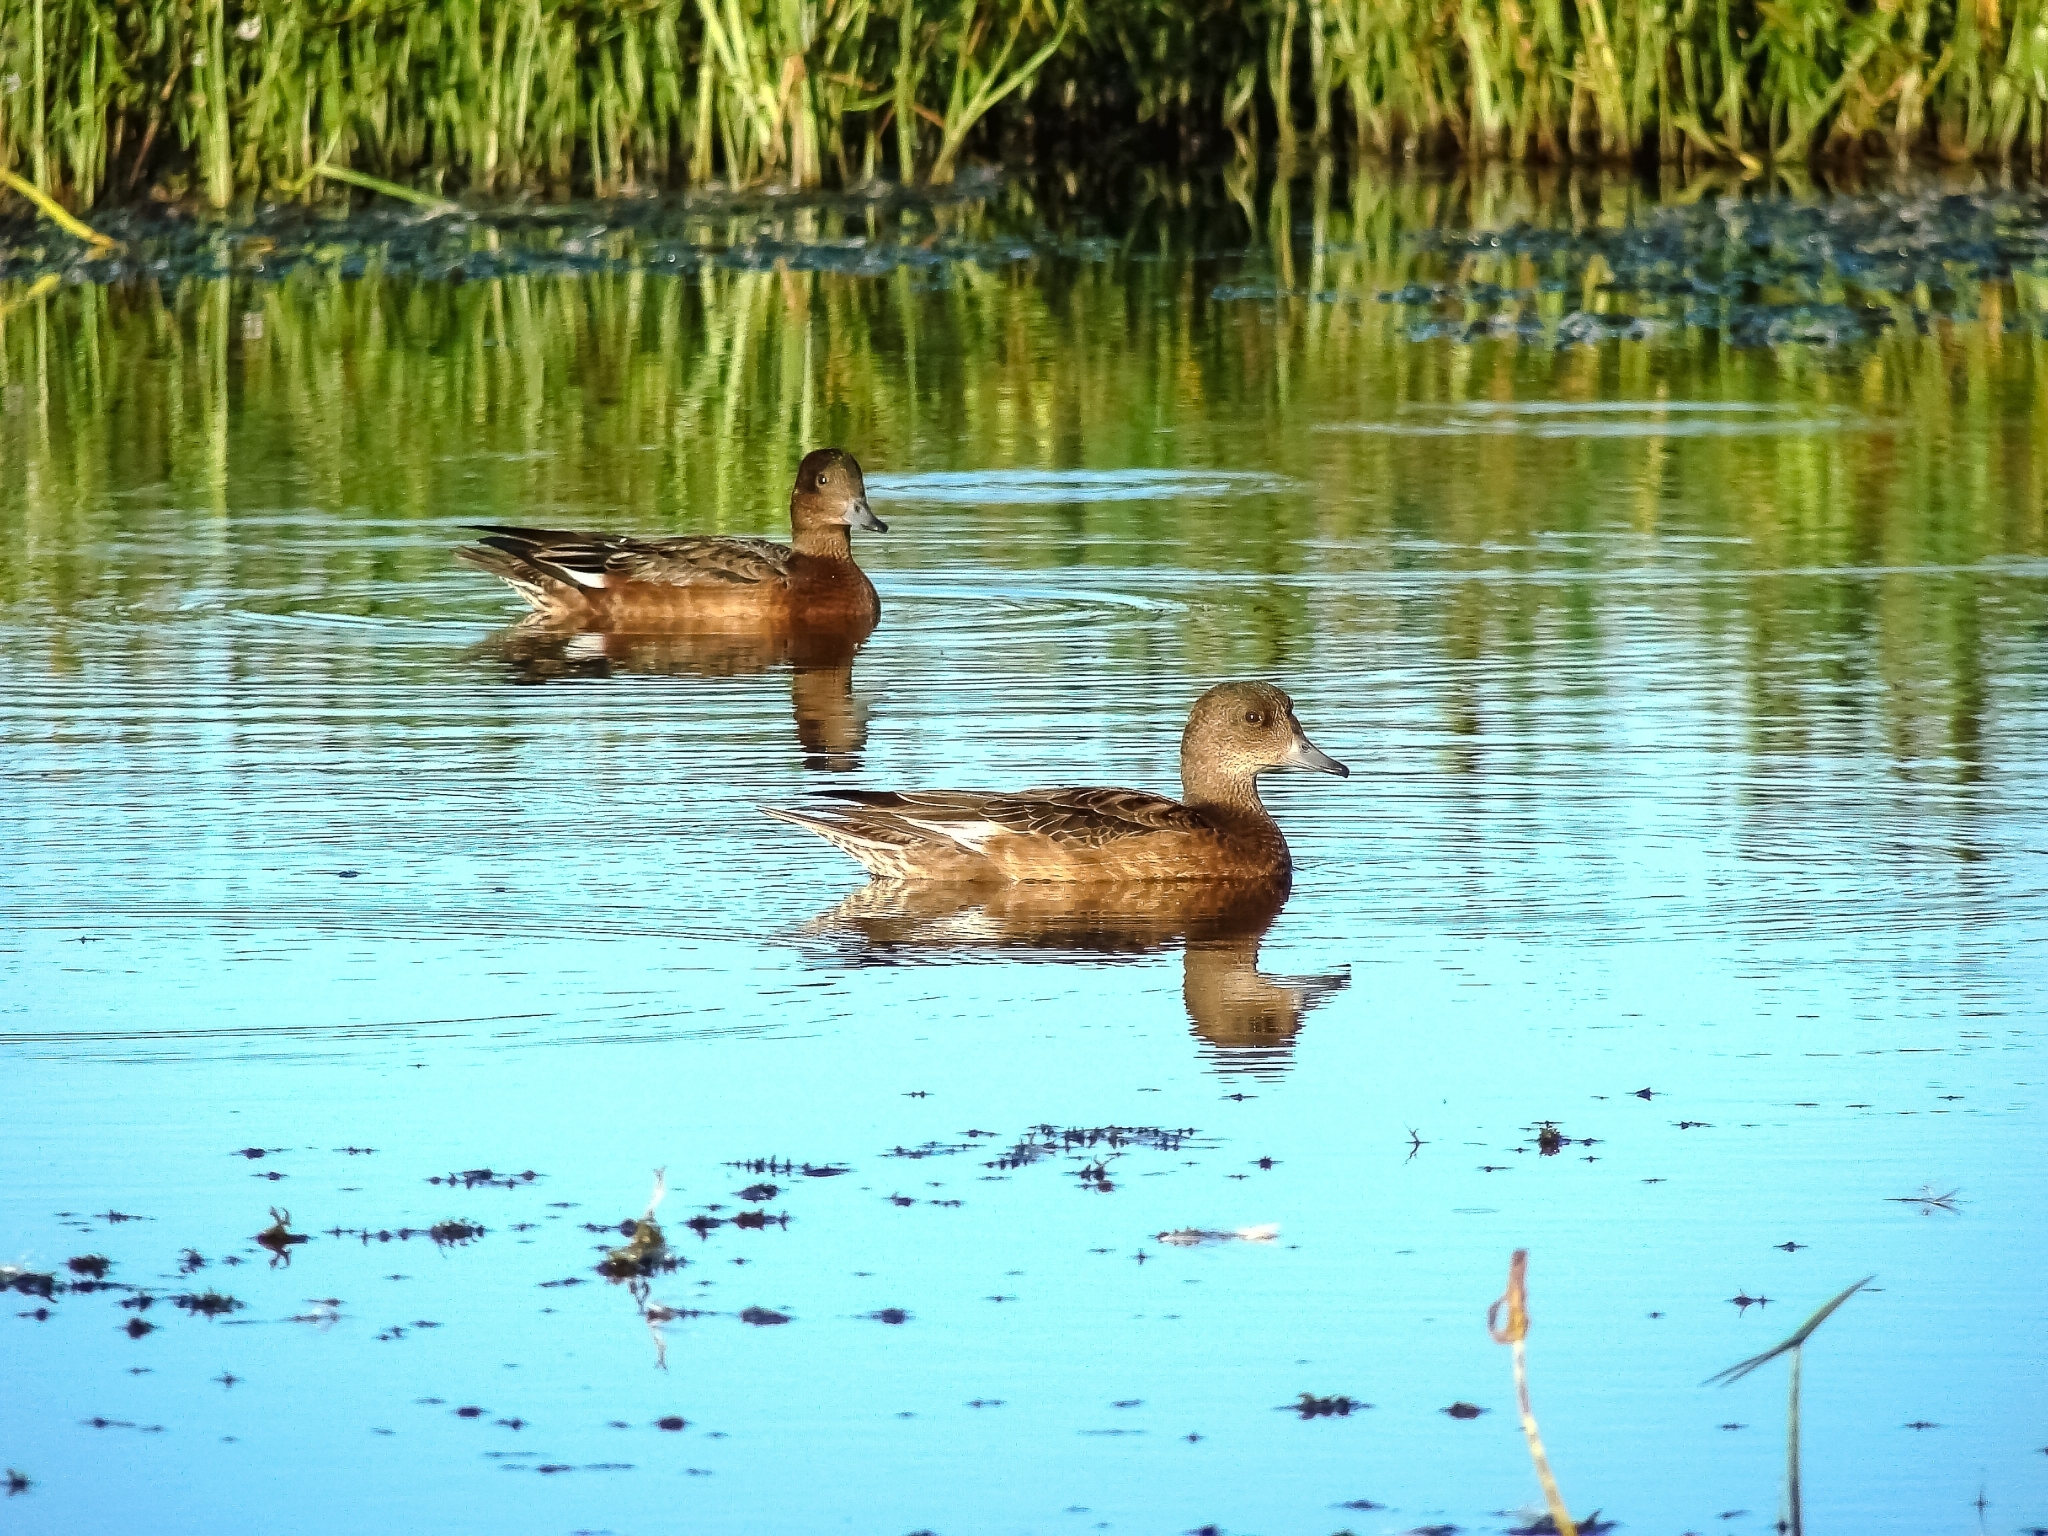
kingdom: Animalia
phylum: Chordata
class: Aves
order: Anseriformes
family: Anatidae
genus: Mareca
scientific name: Mareca penelope
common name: Eurasian wigeon
